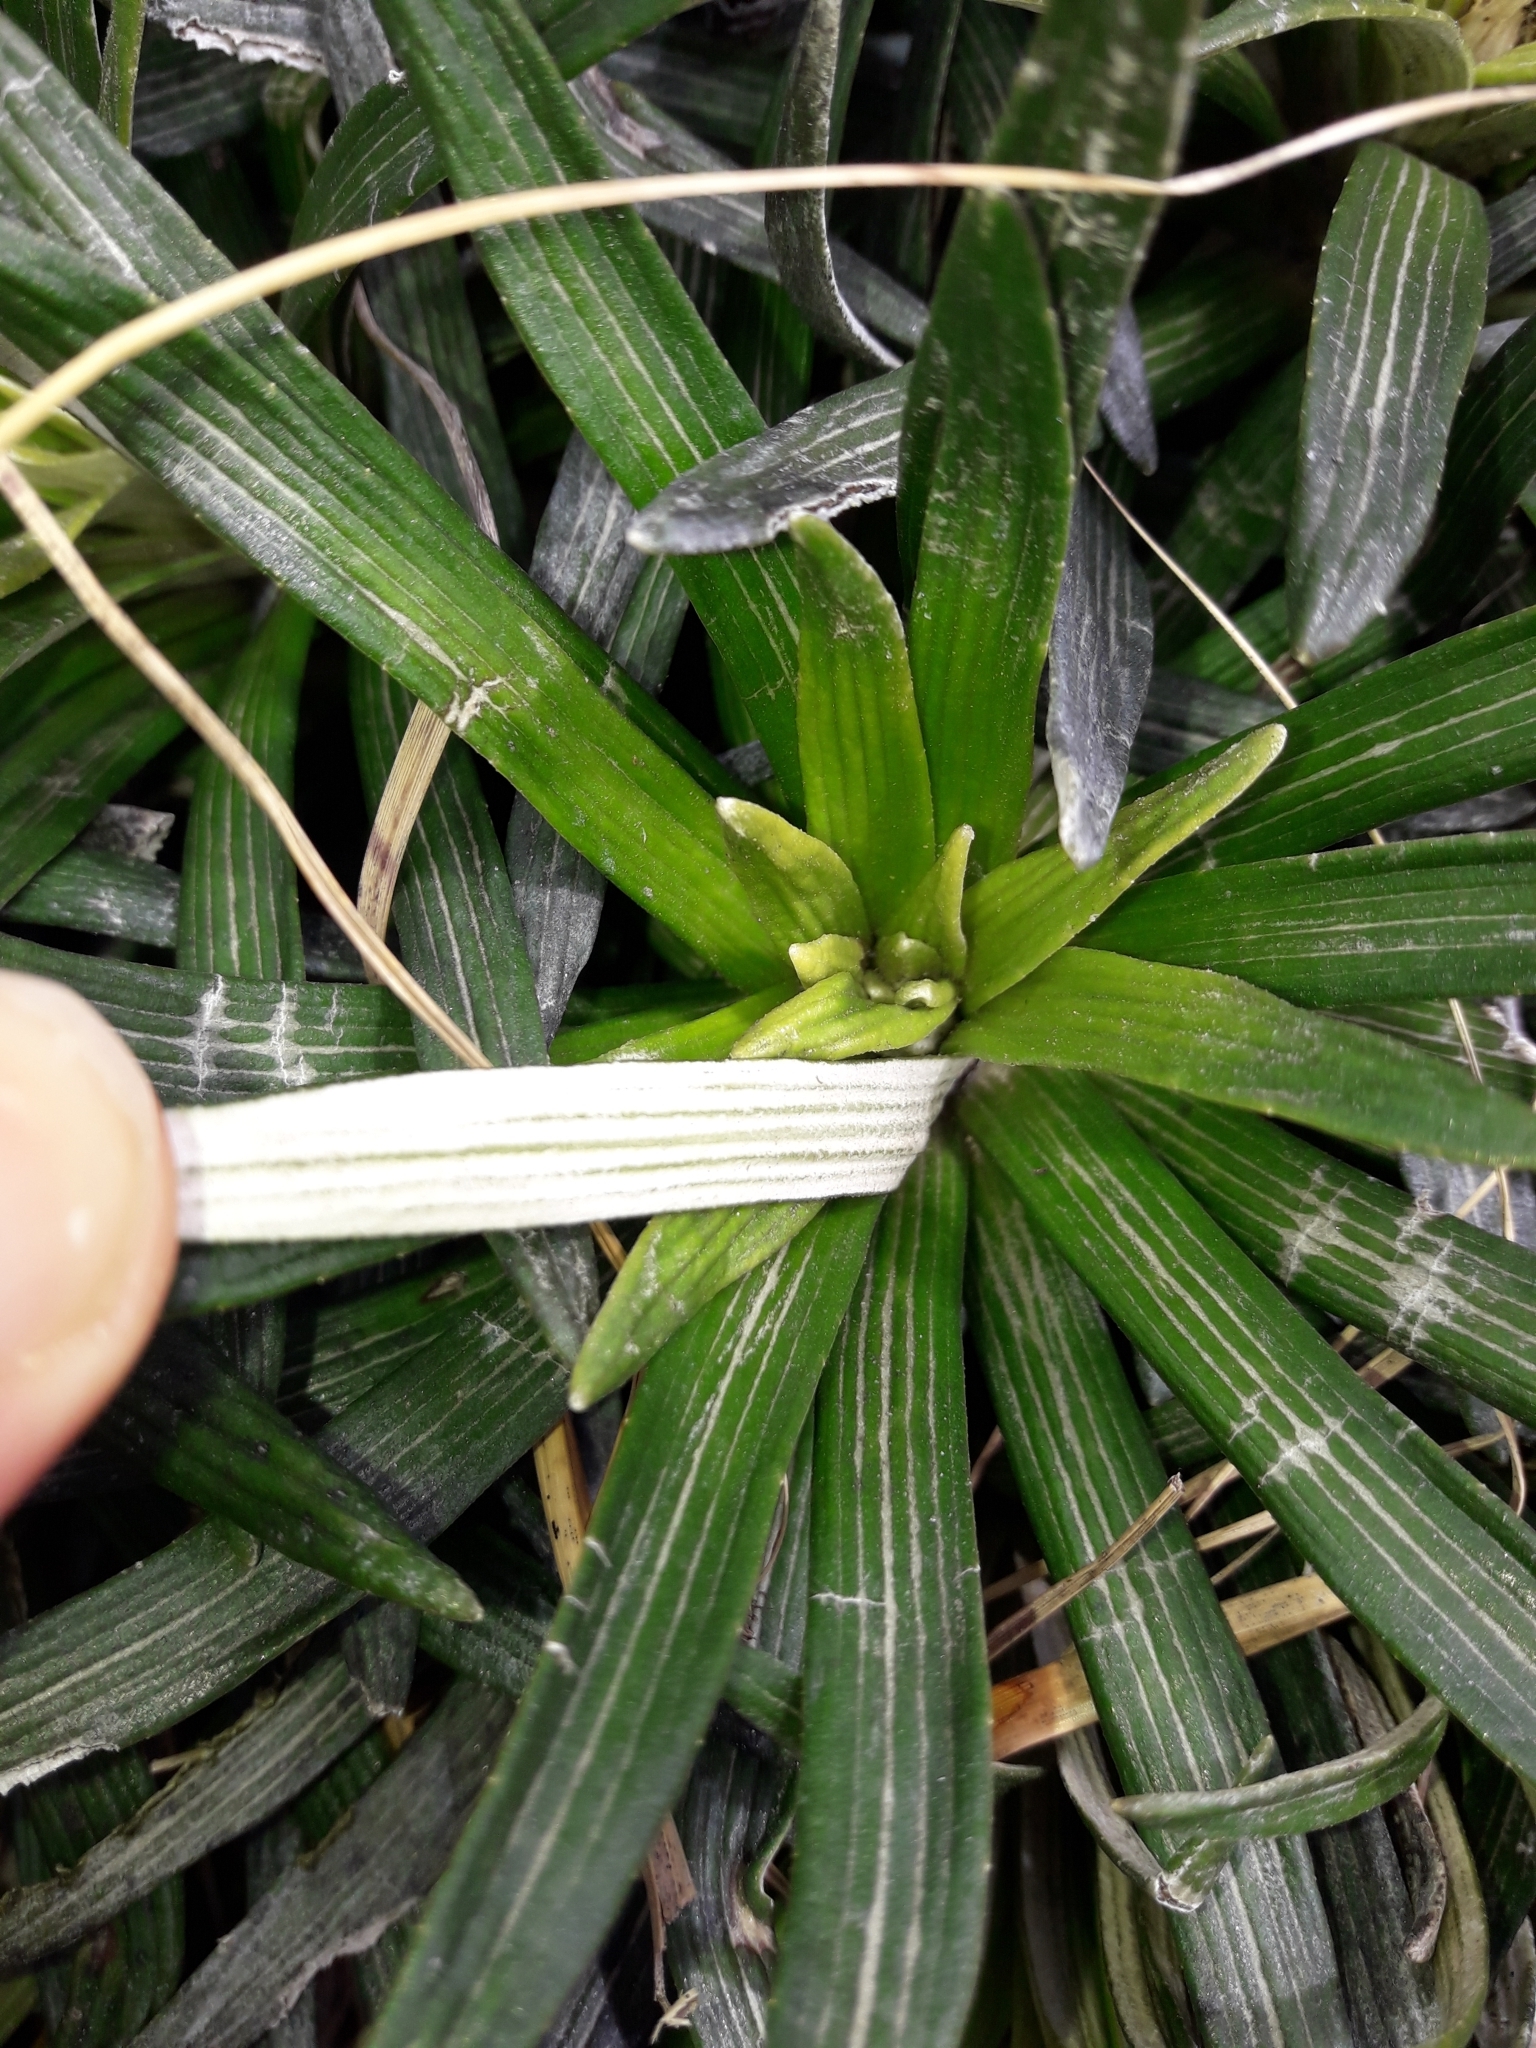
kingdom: Plantae
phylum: Tracheophyta
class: Magnoliopsida
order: Asterales
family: Asteraceae
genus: Celmisia
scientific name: Celmisia viscosa
